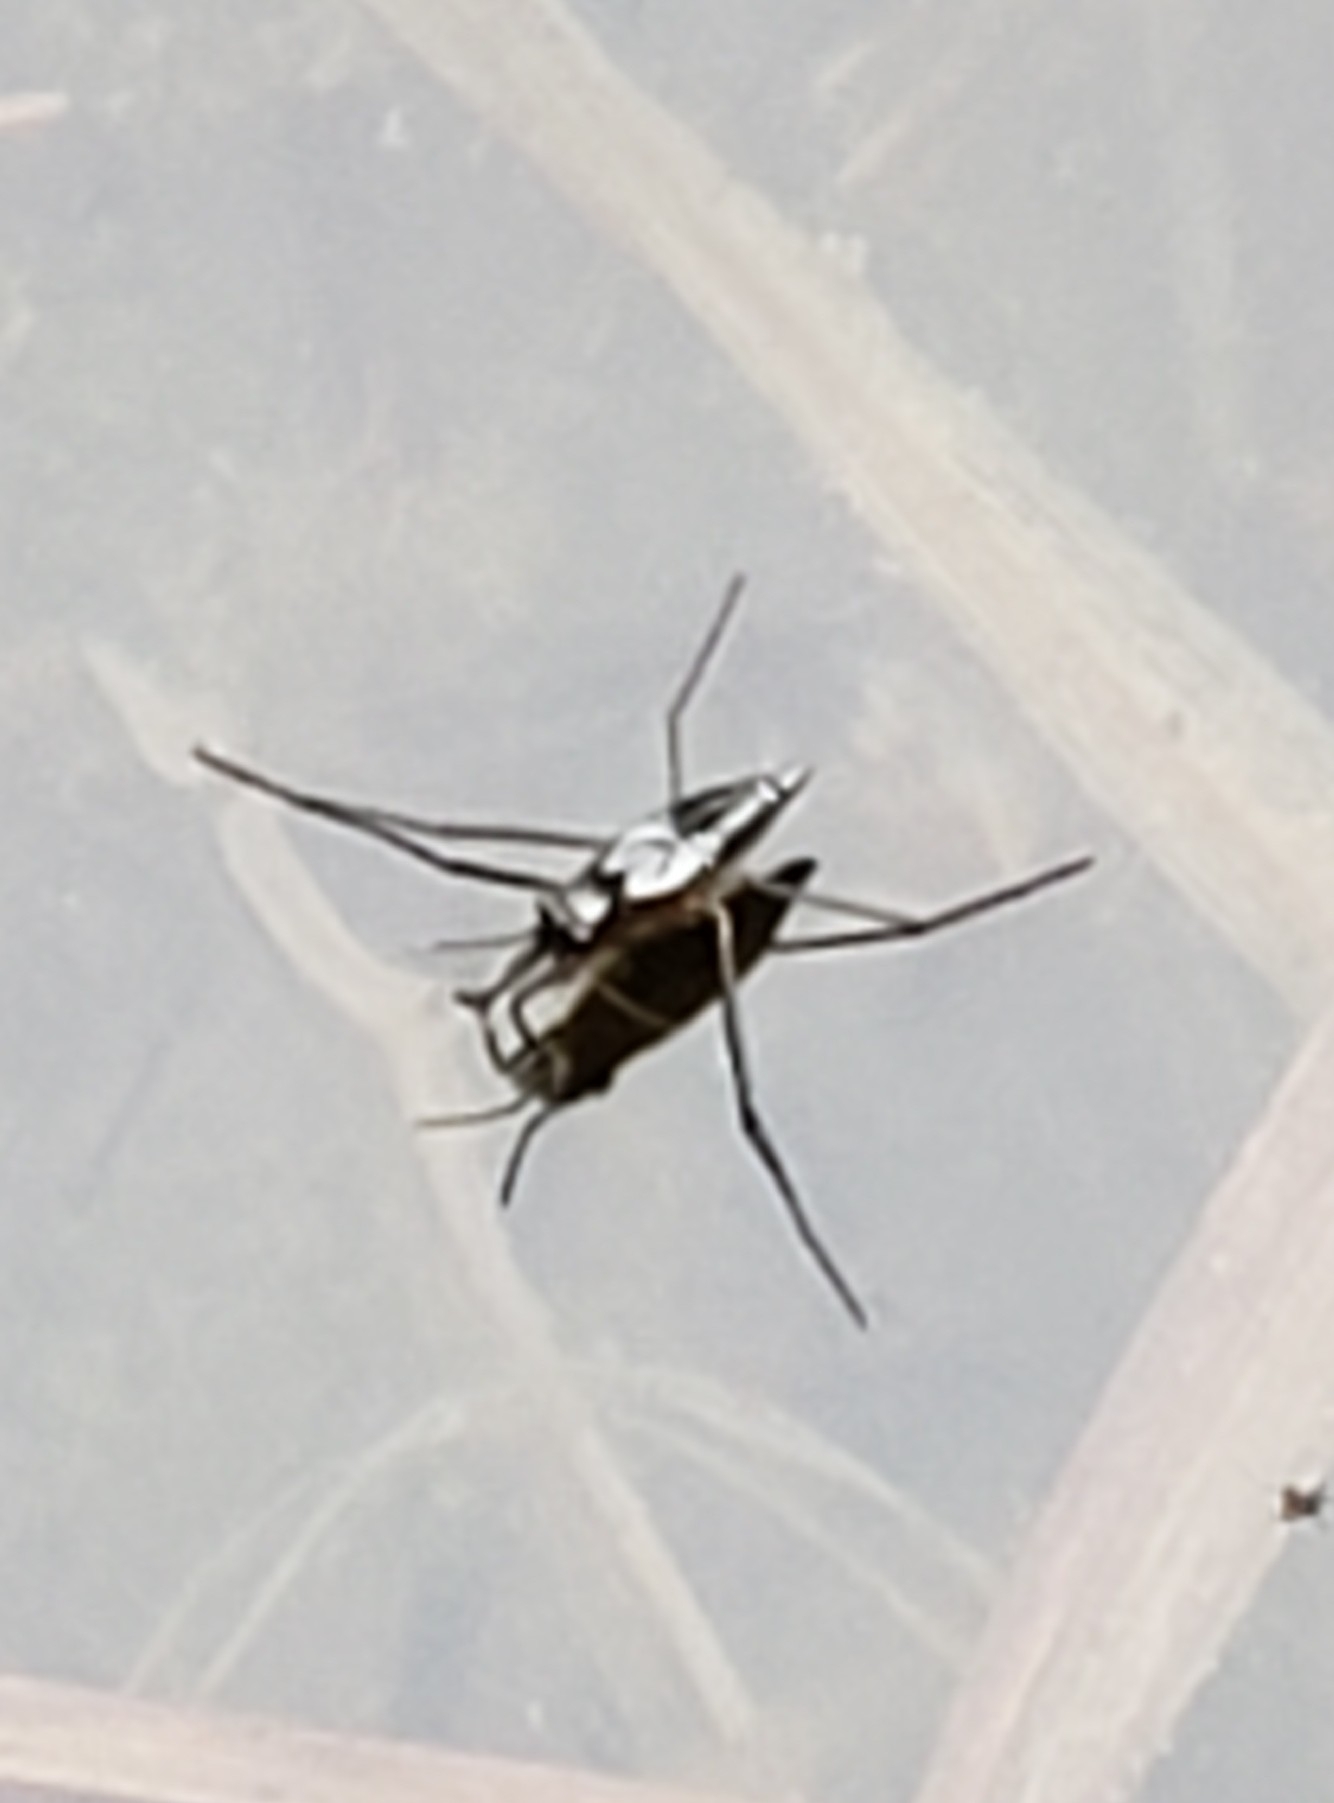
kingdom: Animalia
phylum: Arthropoda
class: Insecta
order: Hemiptera
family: Gerridae
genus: Gerris
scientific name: Gerris
